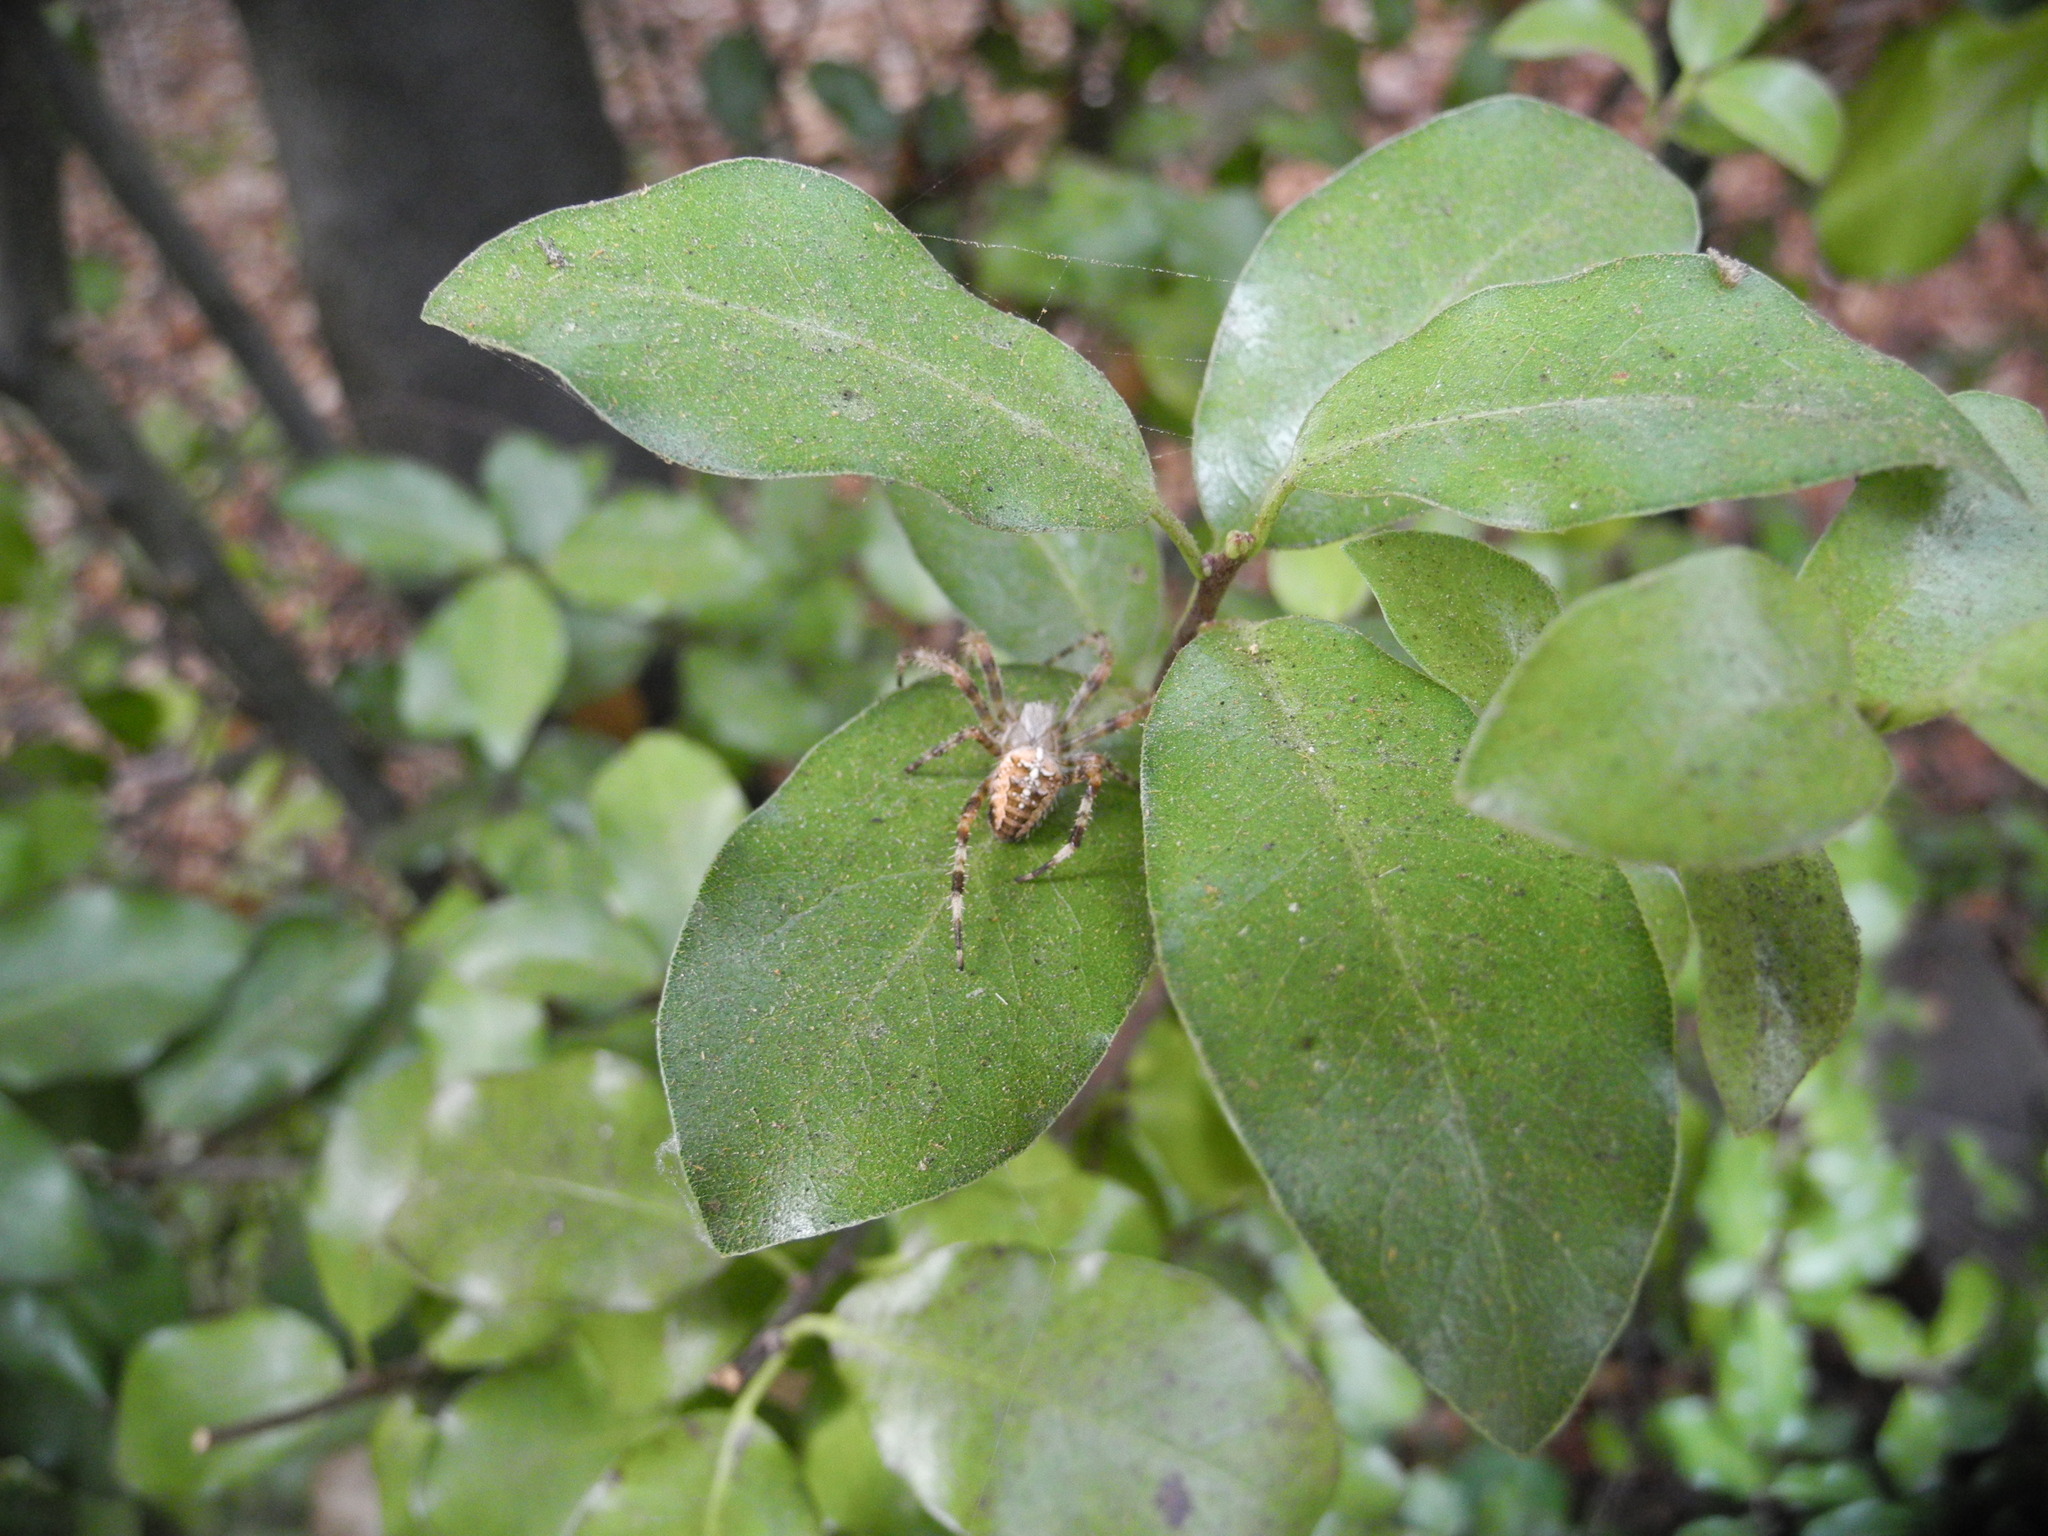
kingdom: Animalia
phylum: Arthropoda
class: Arachnida
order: Araneae
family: Araneidae
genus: Araneus
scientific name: Araneus diadematus
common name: Cross orbweaver
